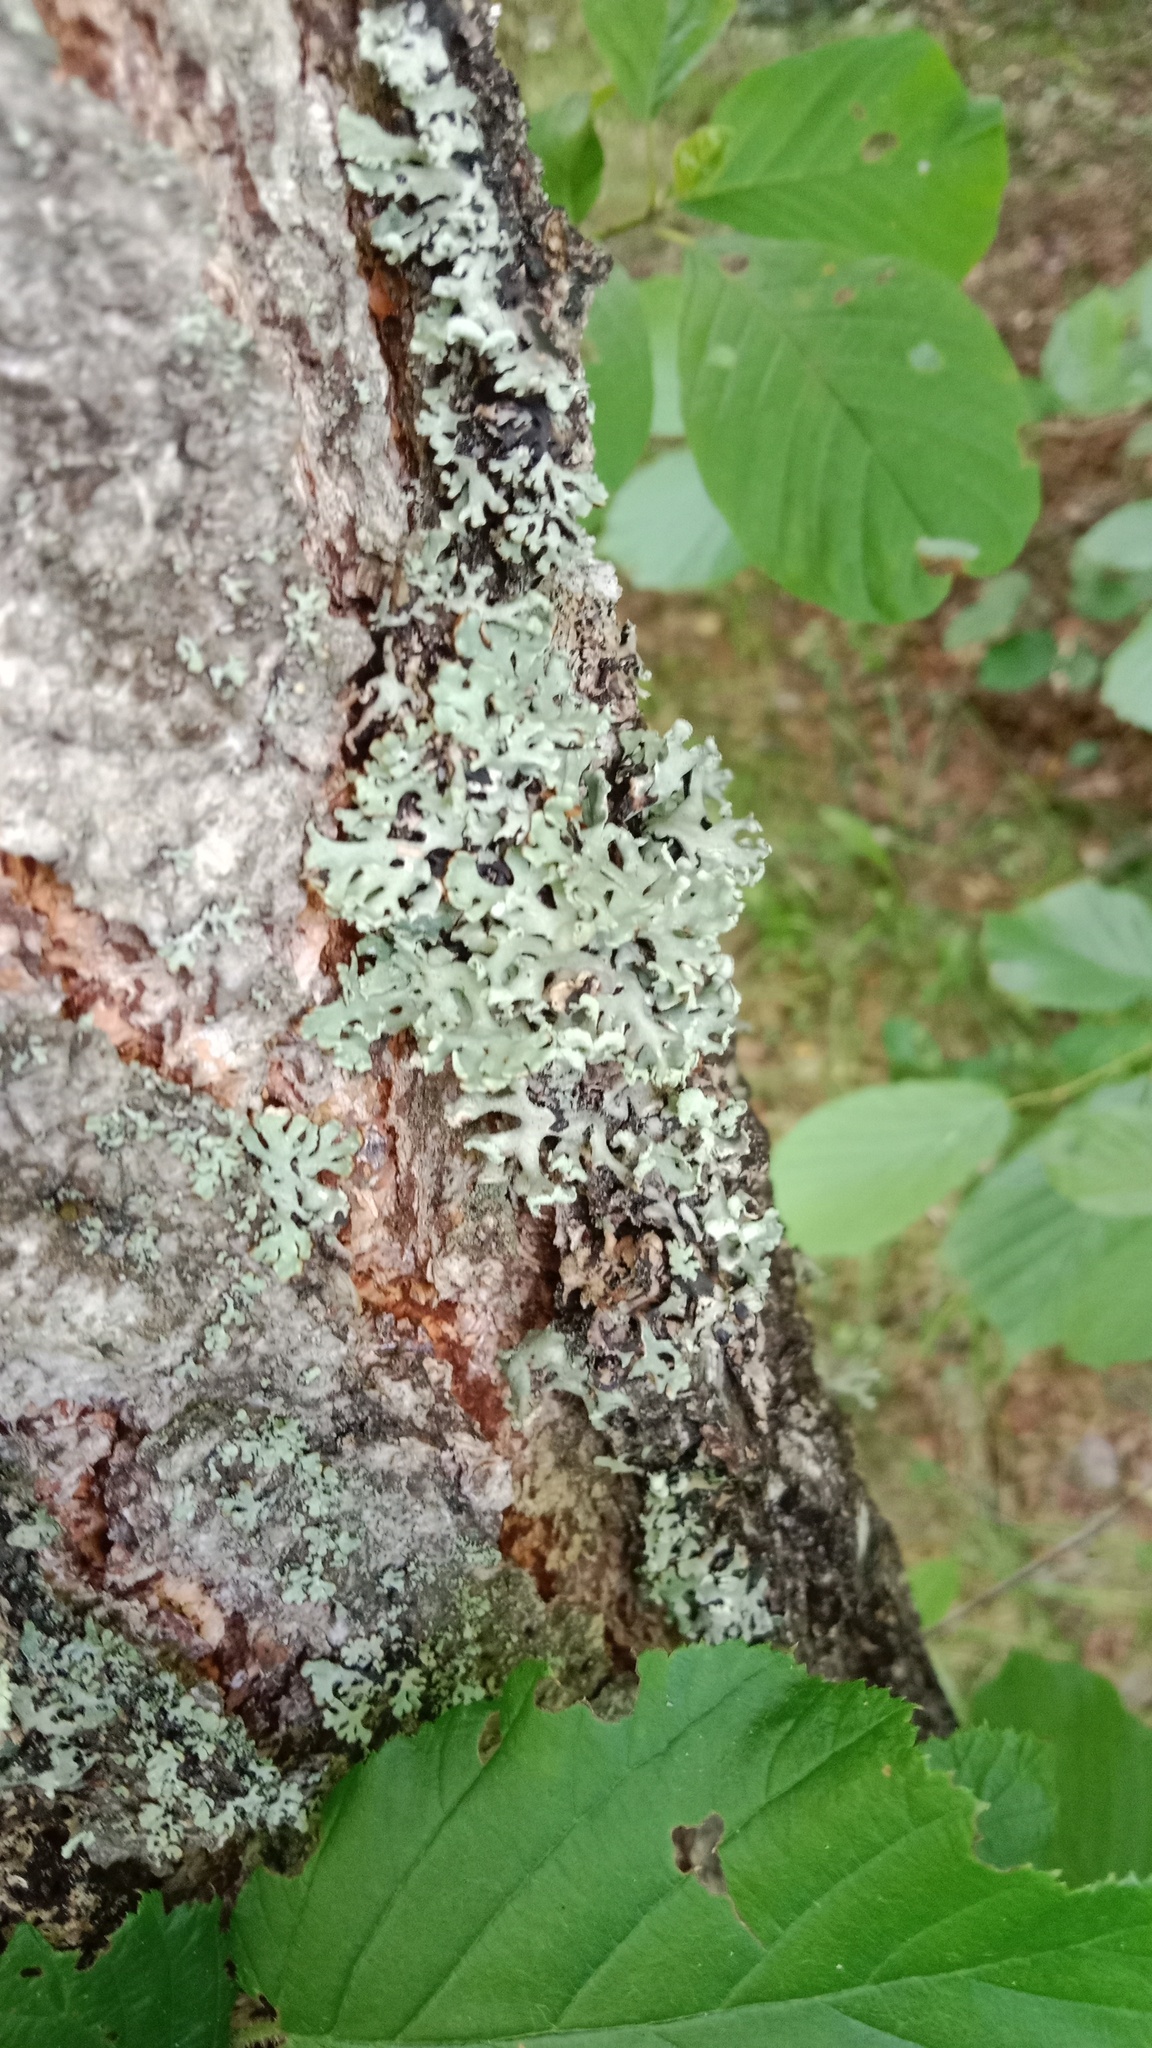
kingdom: Fungi
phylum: Ascomycota
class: Lecanoromycetes
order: Lecanorales
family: Parmeliaceae
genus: Hypogymnia
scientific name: Hypogymnia physodes
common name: Dark crottle
